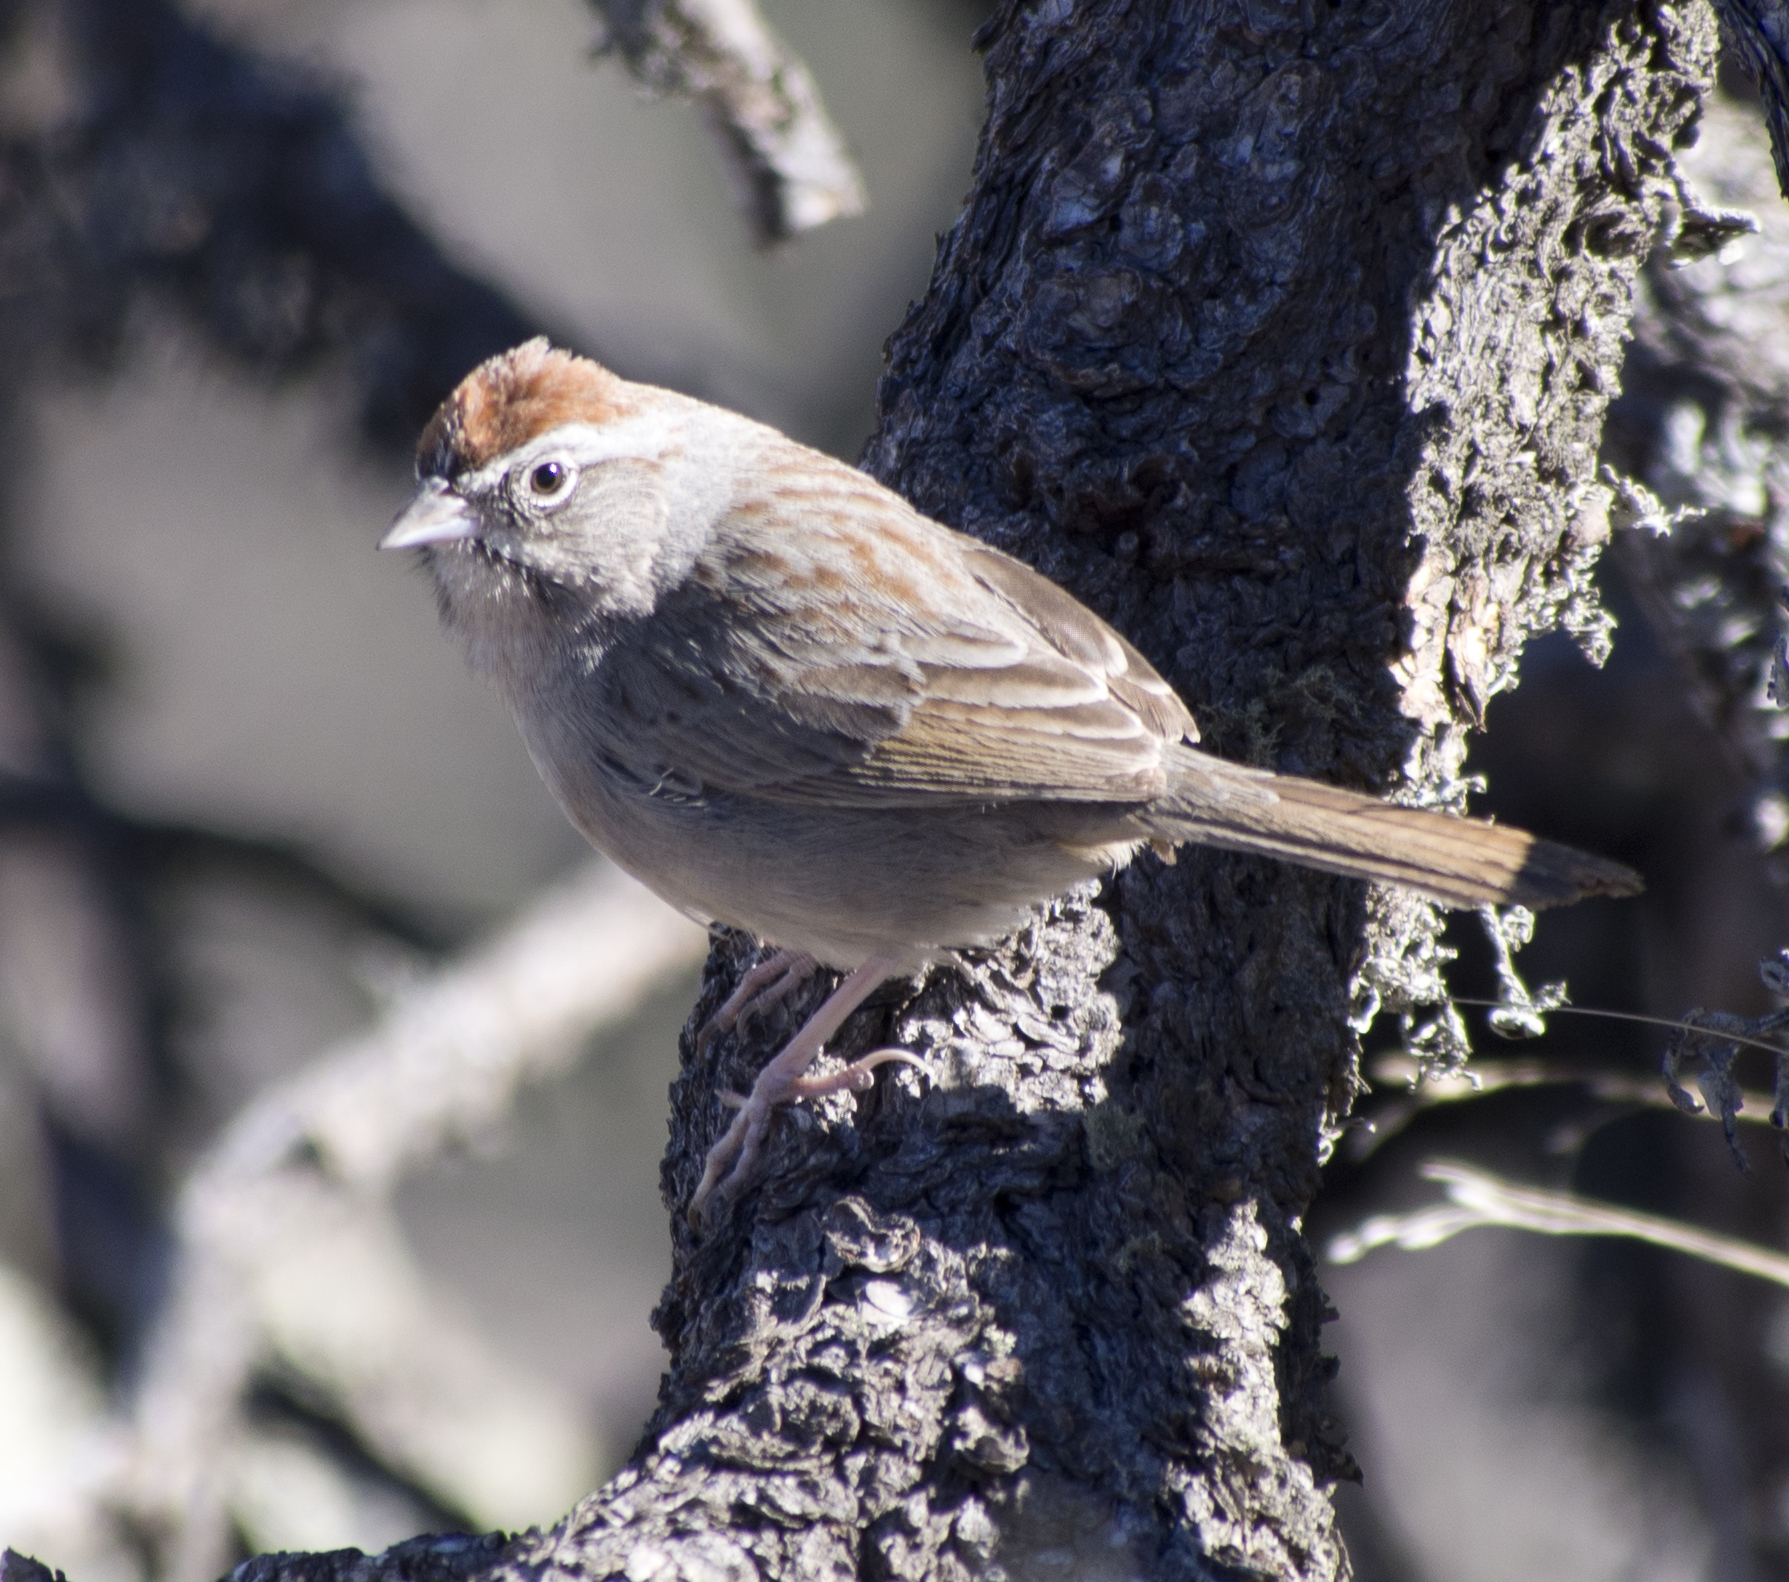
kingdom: Animalia
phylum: Chordata
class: Aves
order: Passeriformes
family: Passerellidae
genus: Aimophila
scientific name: Aimophila ruficeps
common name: Rufous-crowned sparrow
